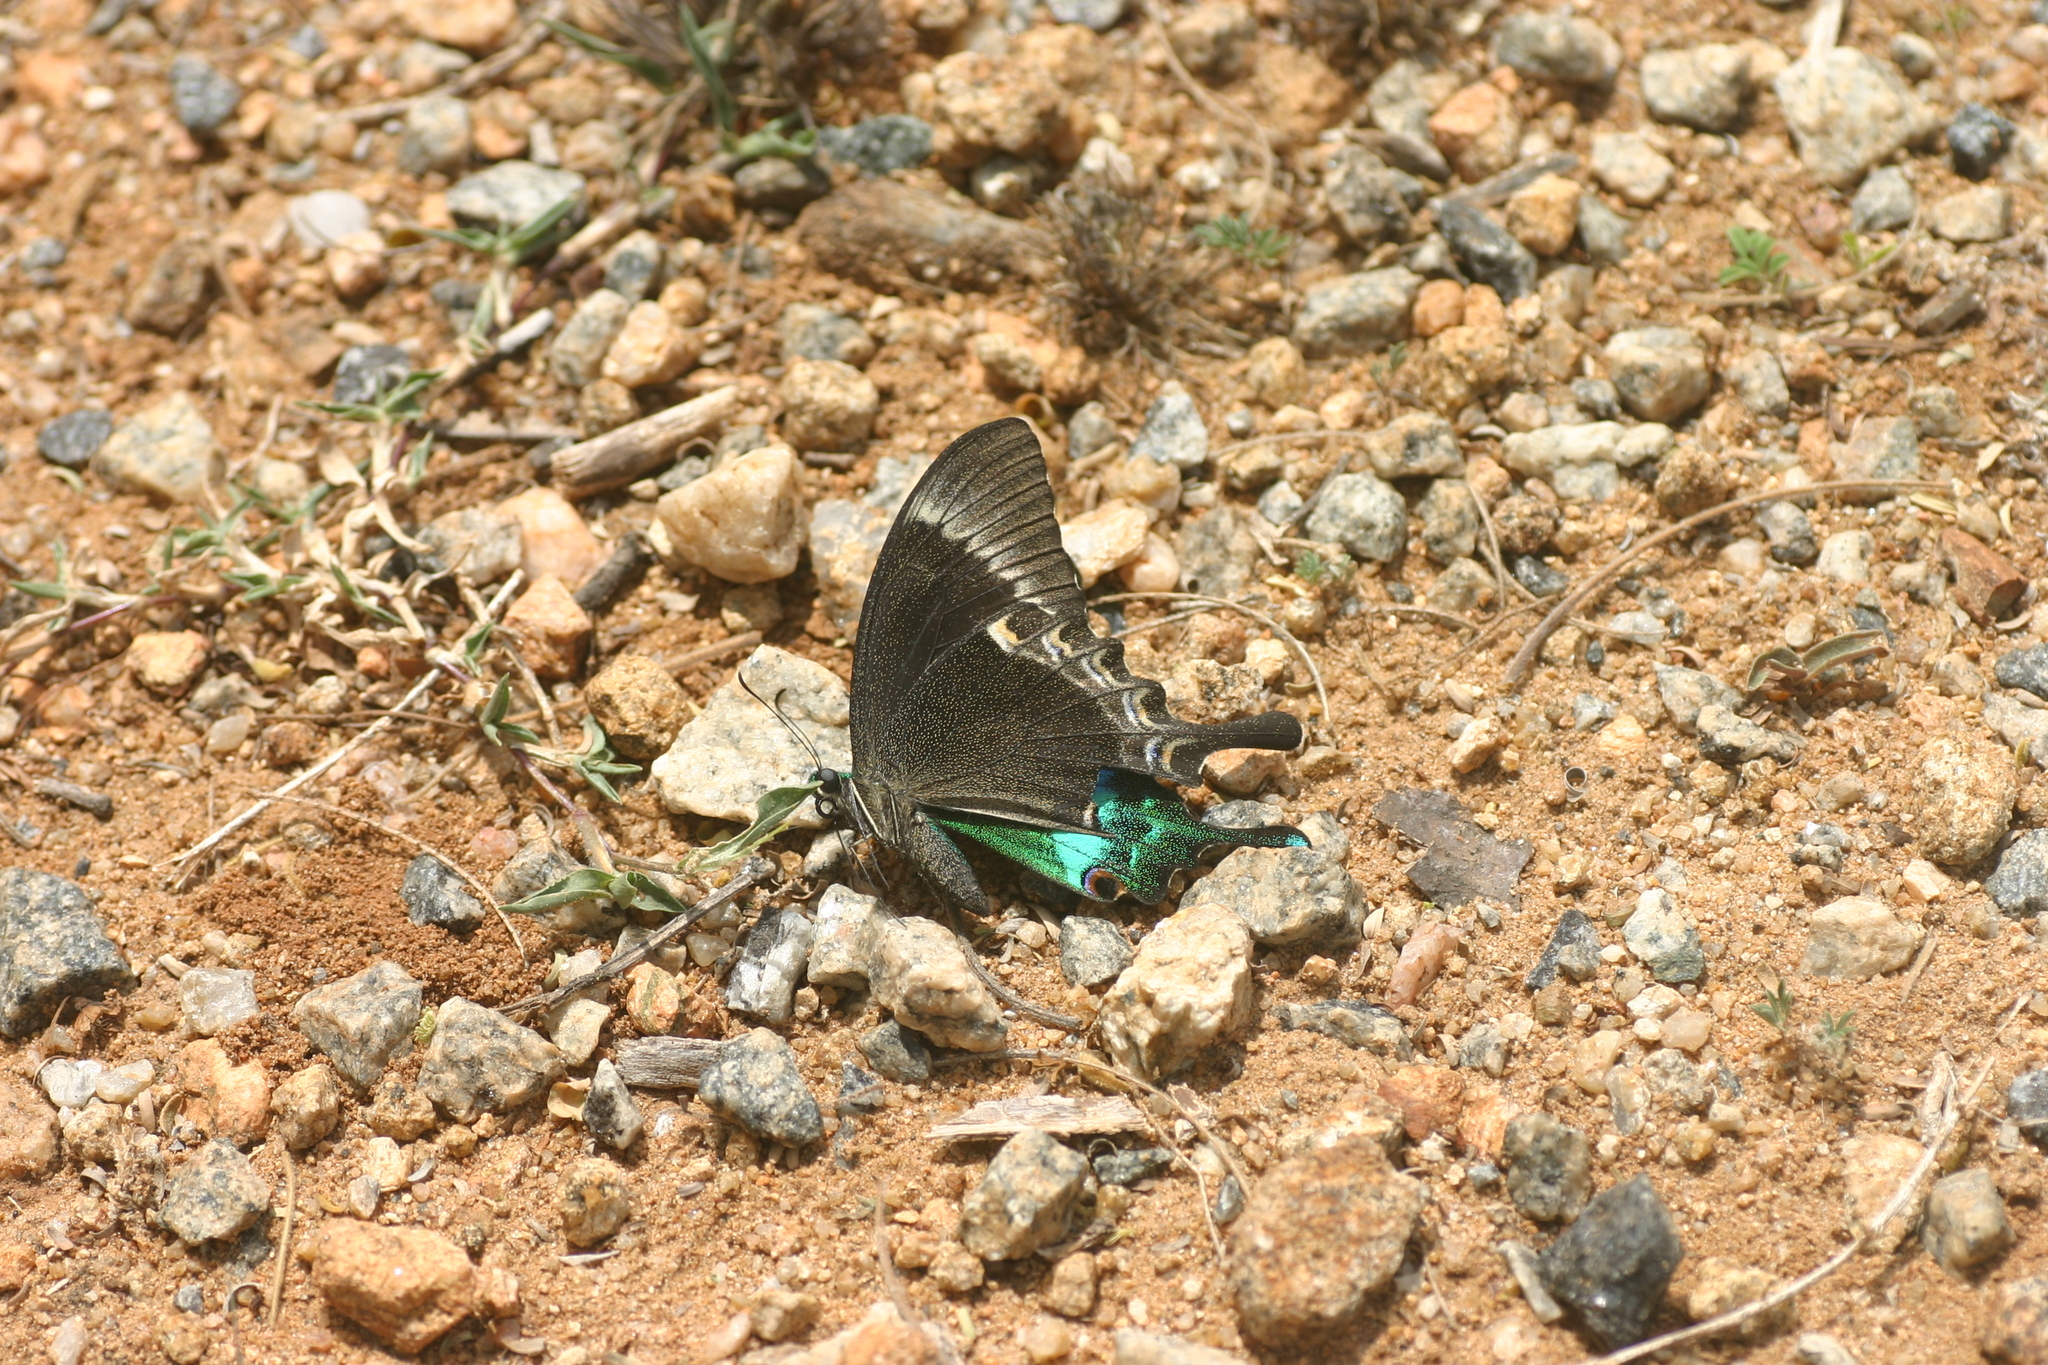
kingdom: Animalia
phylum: Arthropoda
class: Insecta
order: Lepidoptera
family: Papilionidae
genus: Papilio
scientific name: Papilio crino
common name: Common banded peacock
